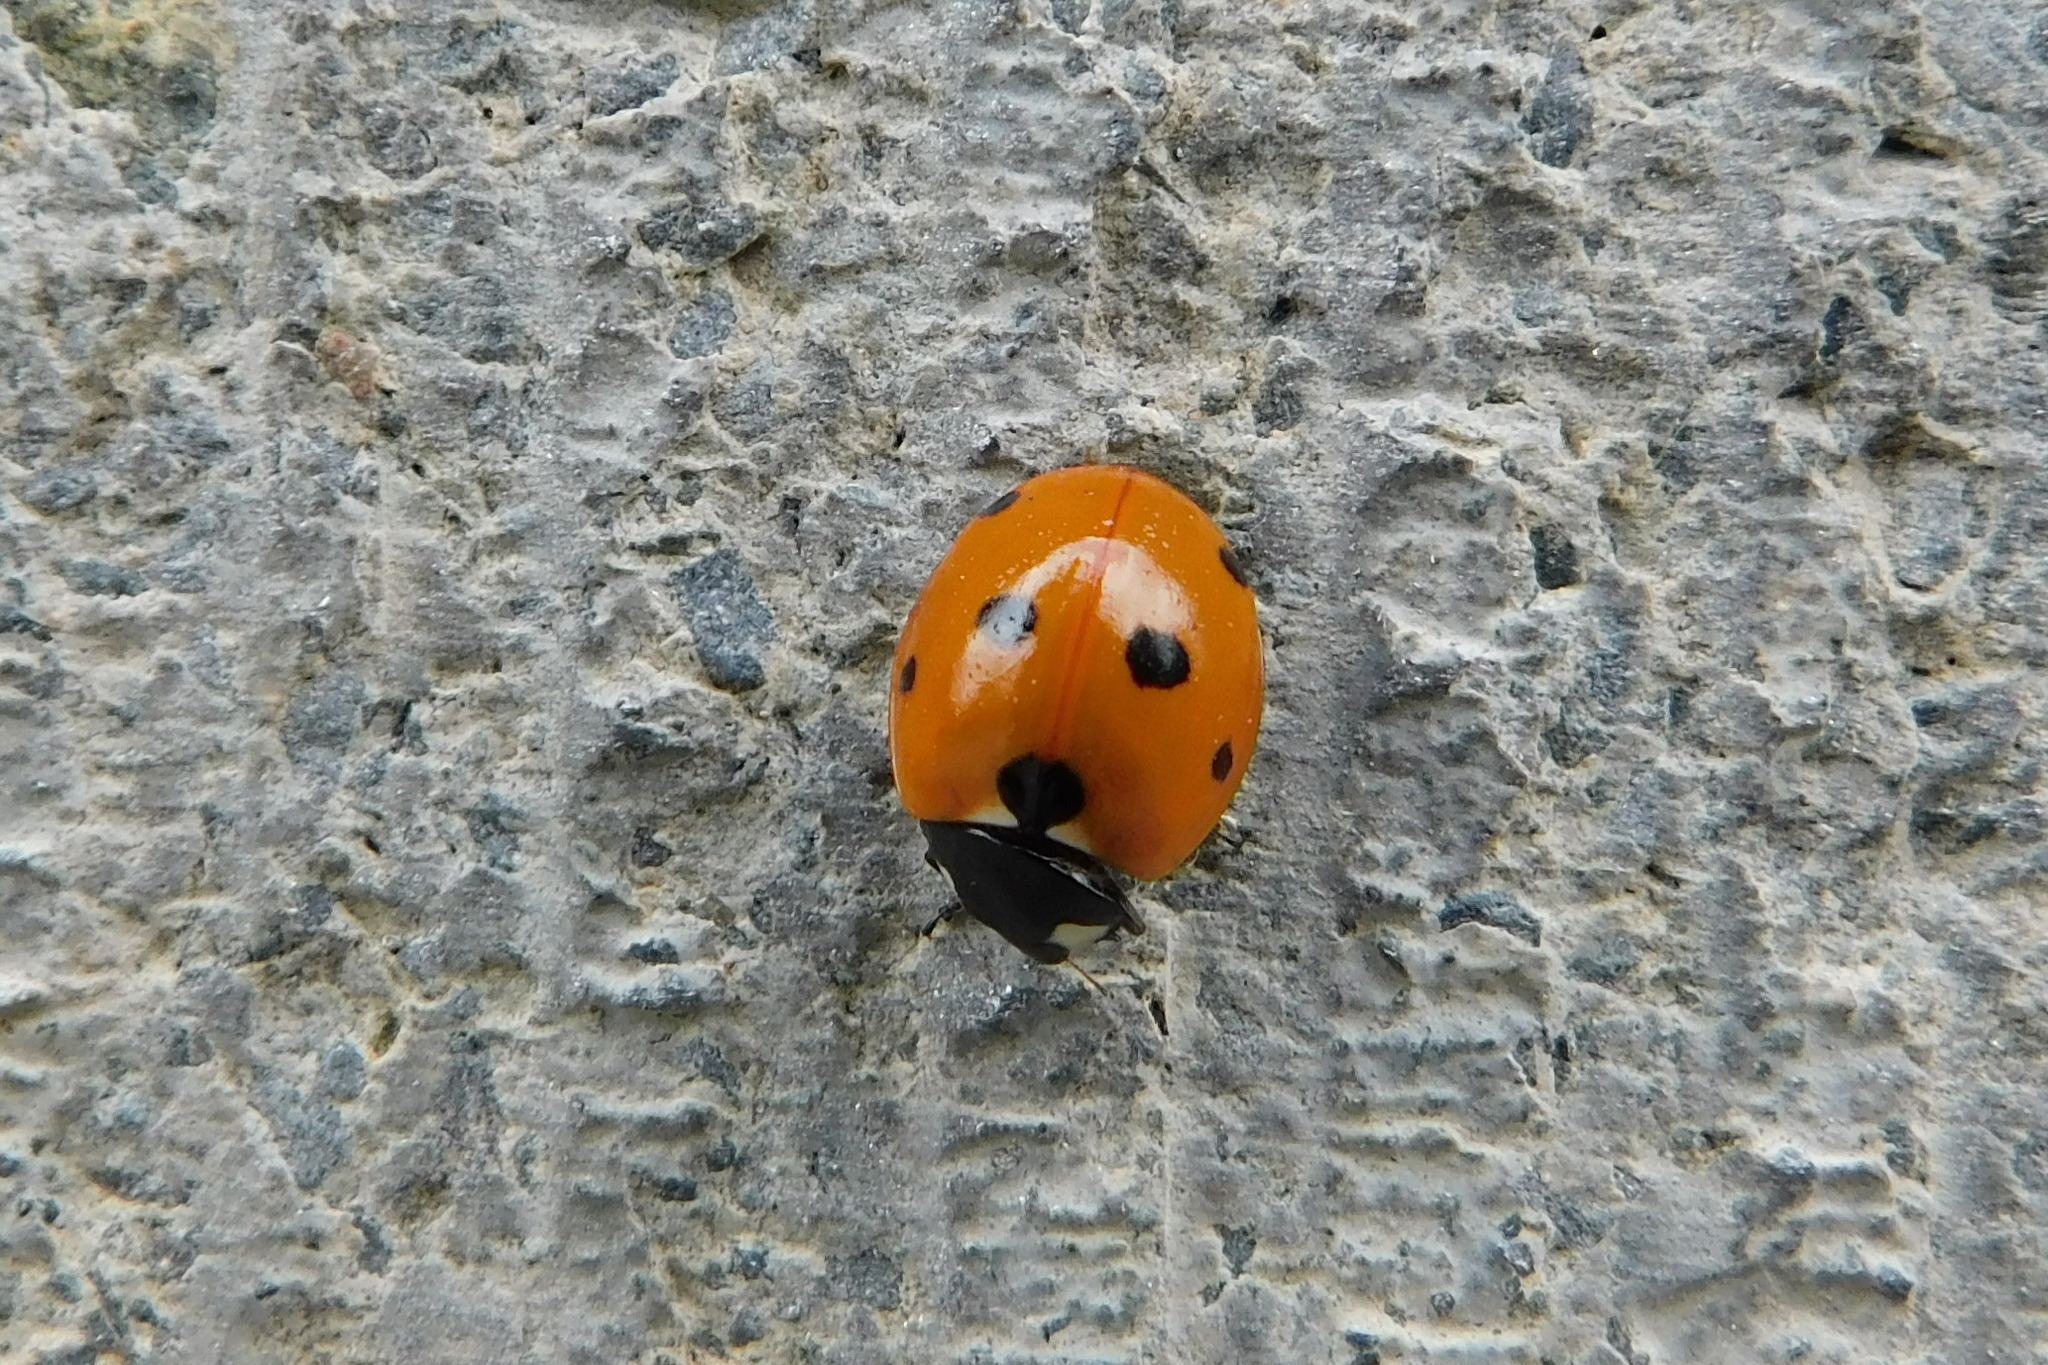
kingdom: Animalia
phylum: Arthropoda
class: Insecta
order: Coleoptera
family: Coccinellidae
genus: Coccinella
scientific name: Coccinella septempunctata
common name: Sevenspotted lady beetle
